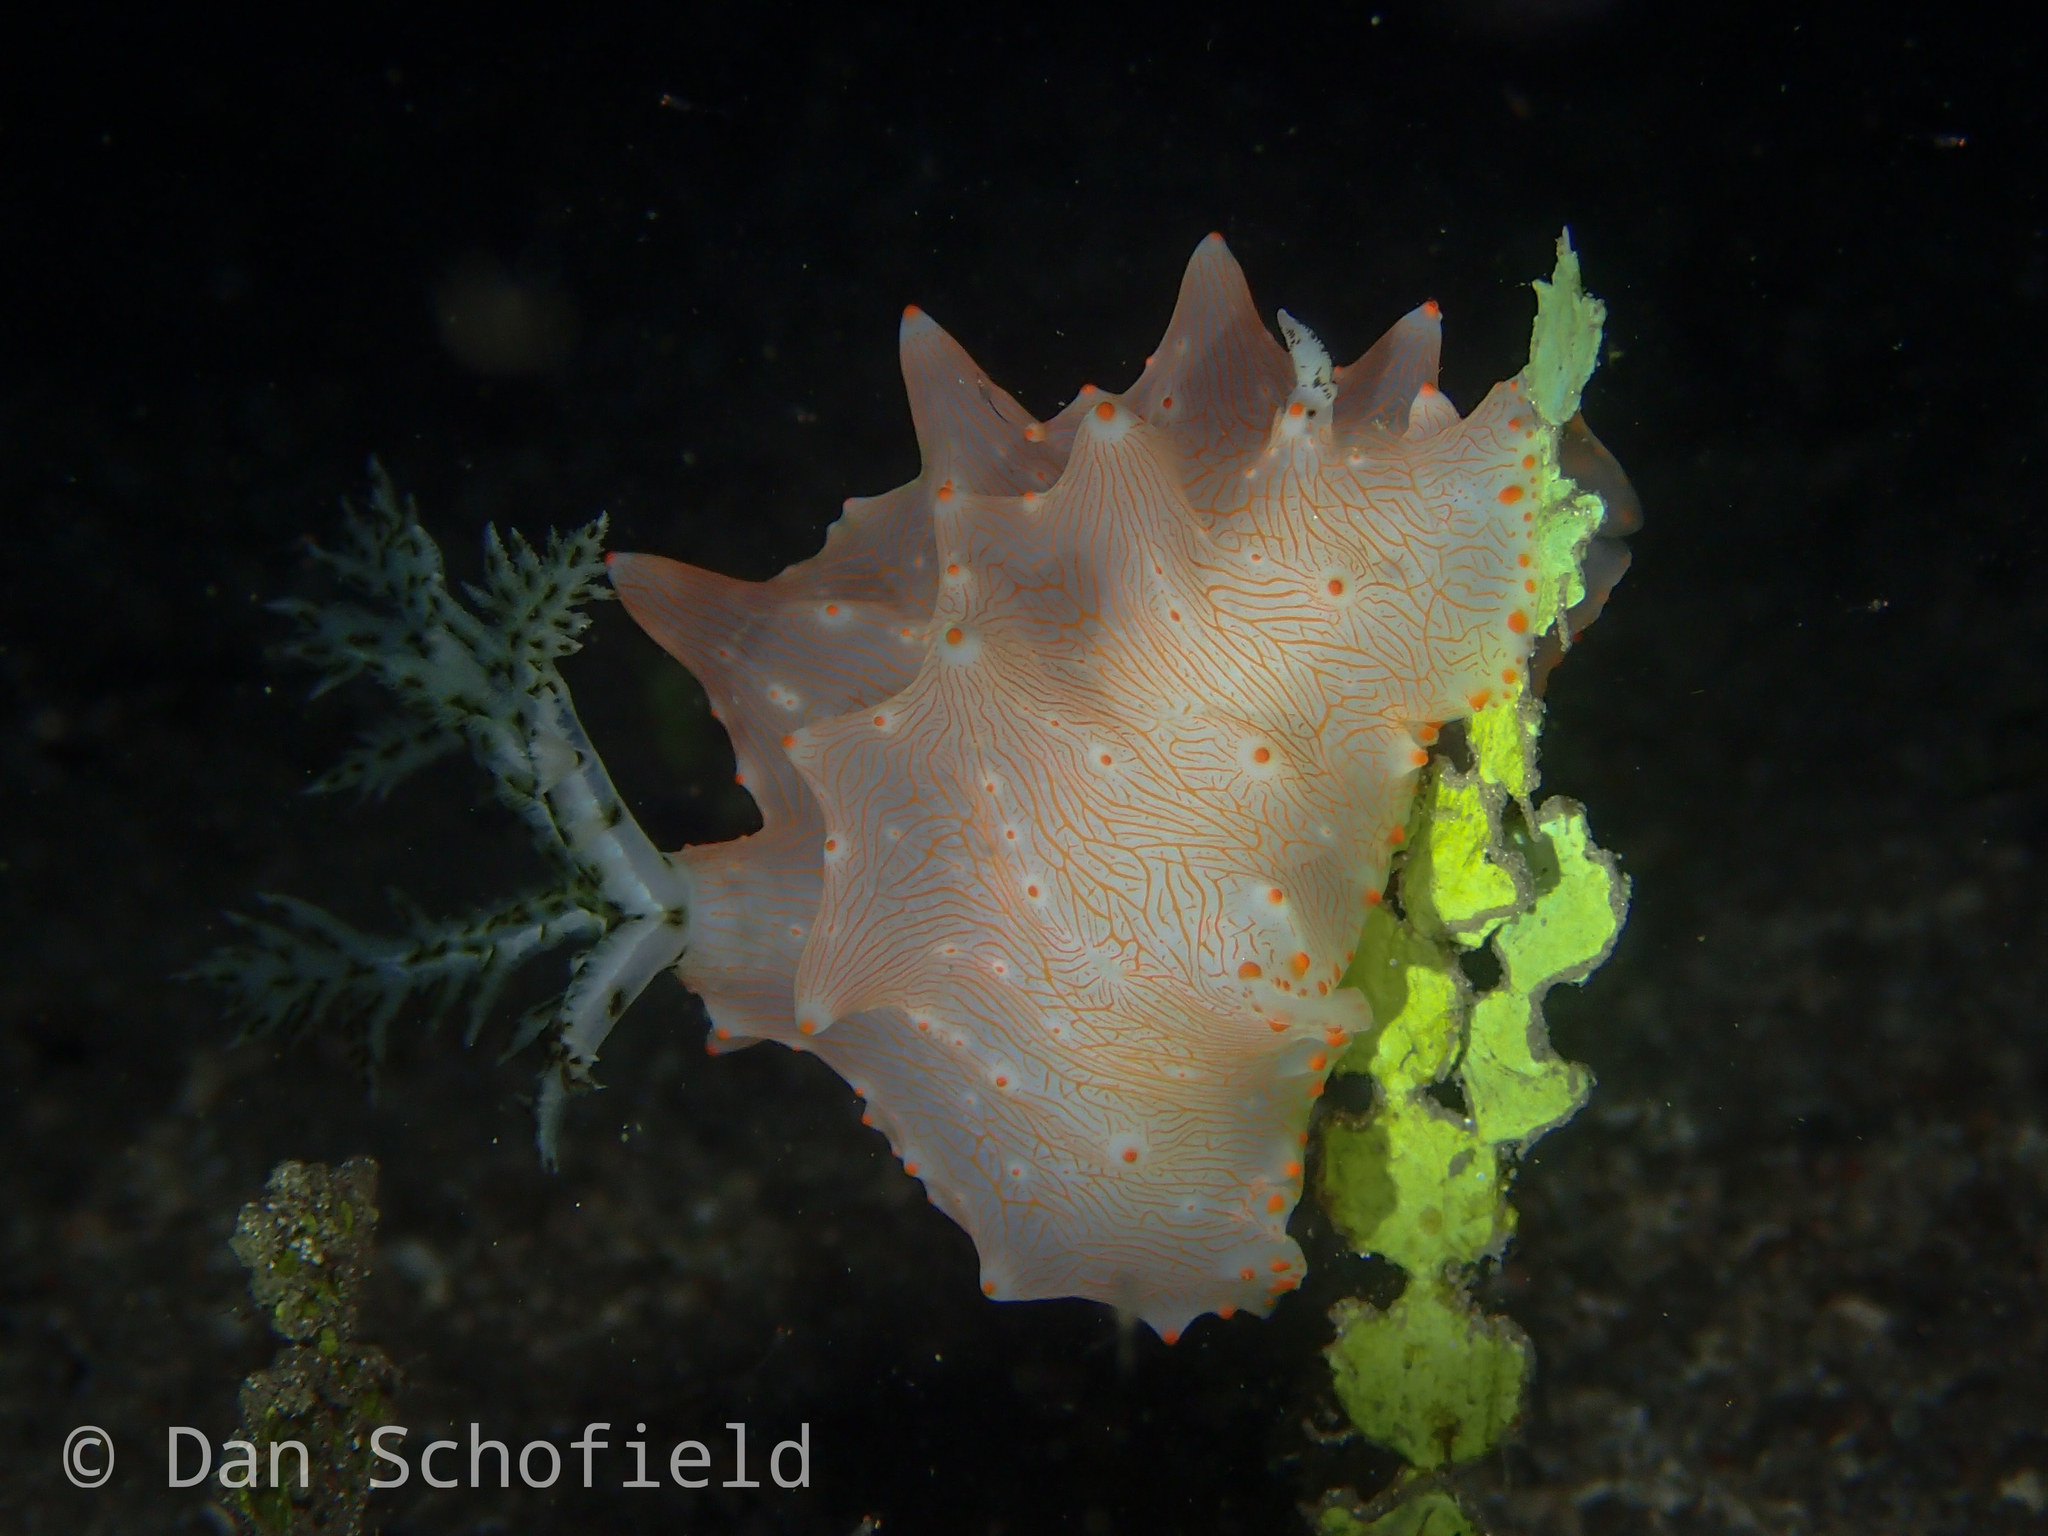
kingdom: Animalia
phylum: Mollusca
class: Gastropoda
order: Nudibranchia
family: Discodorididae
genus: Halgerda
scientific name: Halgerda batangas
